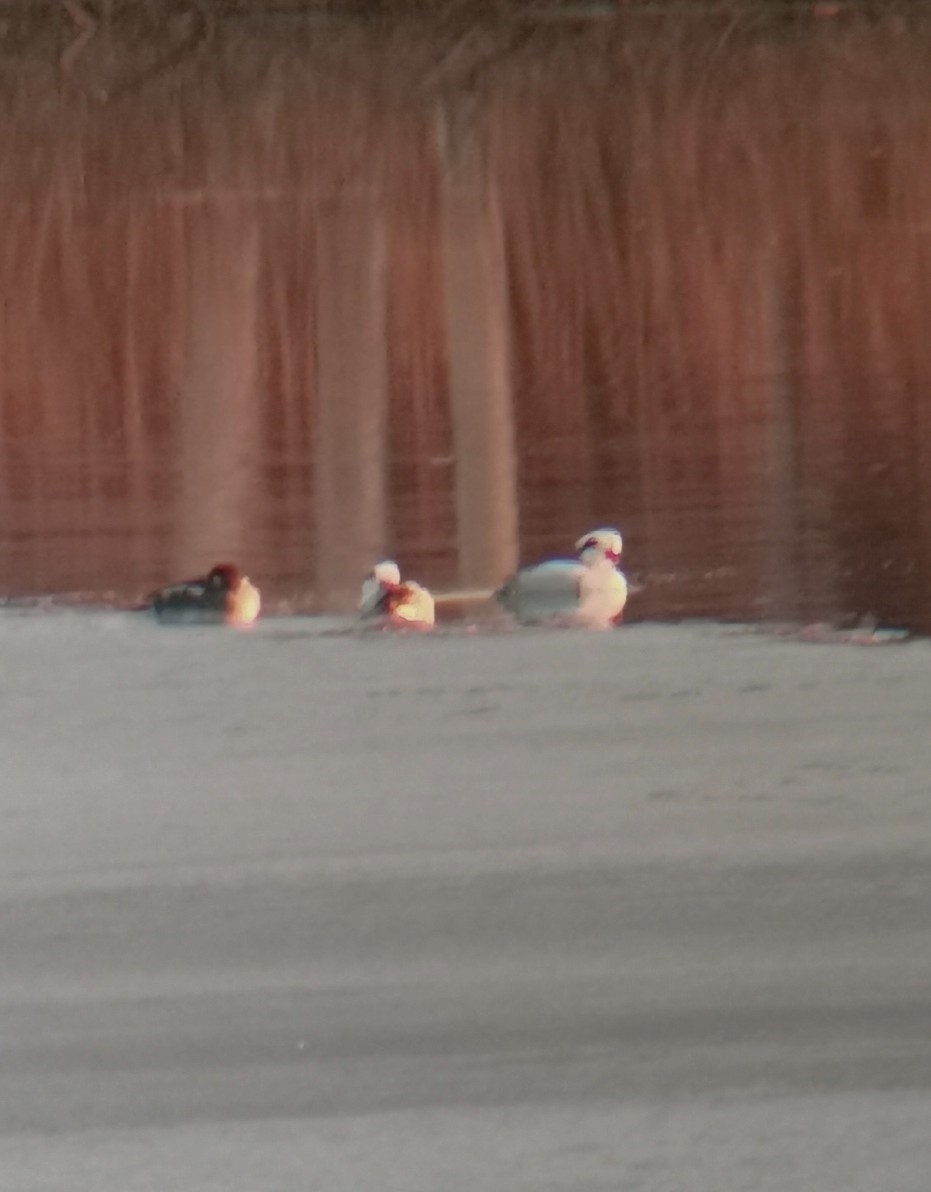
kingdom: Animalia
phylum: Chordata
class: Aves
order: Anseriformes
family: Anatidae
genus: Mergellus
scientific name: Mergellus albellus
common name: Smew
